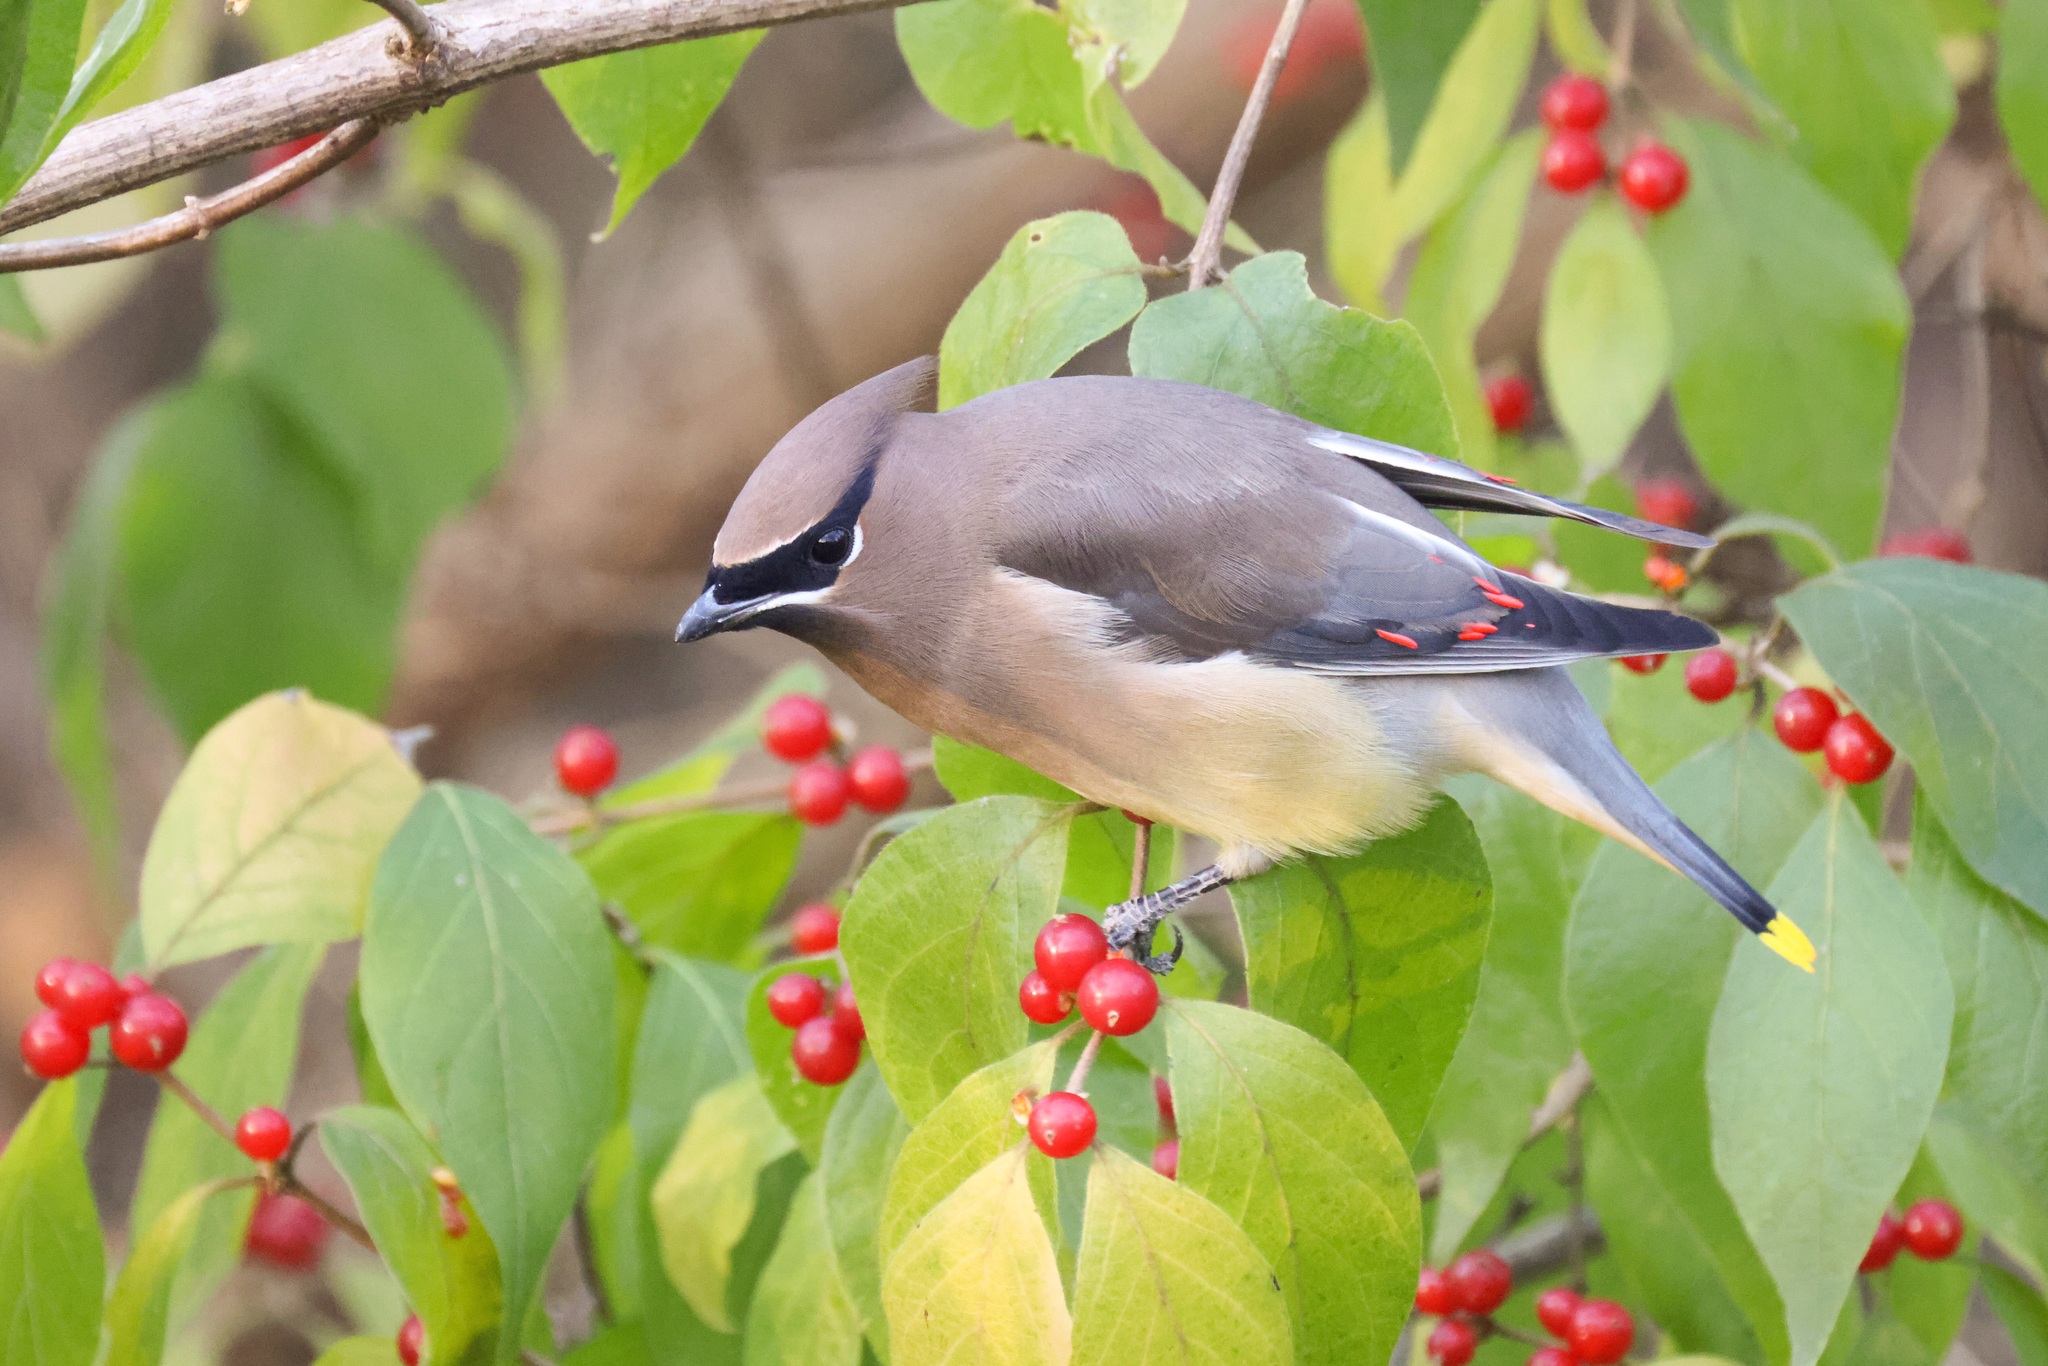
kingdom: Animalia
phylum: Chordata
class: Aves
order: Passeriformes
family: Bombycillidae
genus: Bombycilla
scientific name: Bombycilla cedrorum
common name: Cedar waxwing
